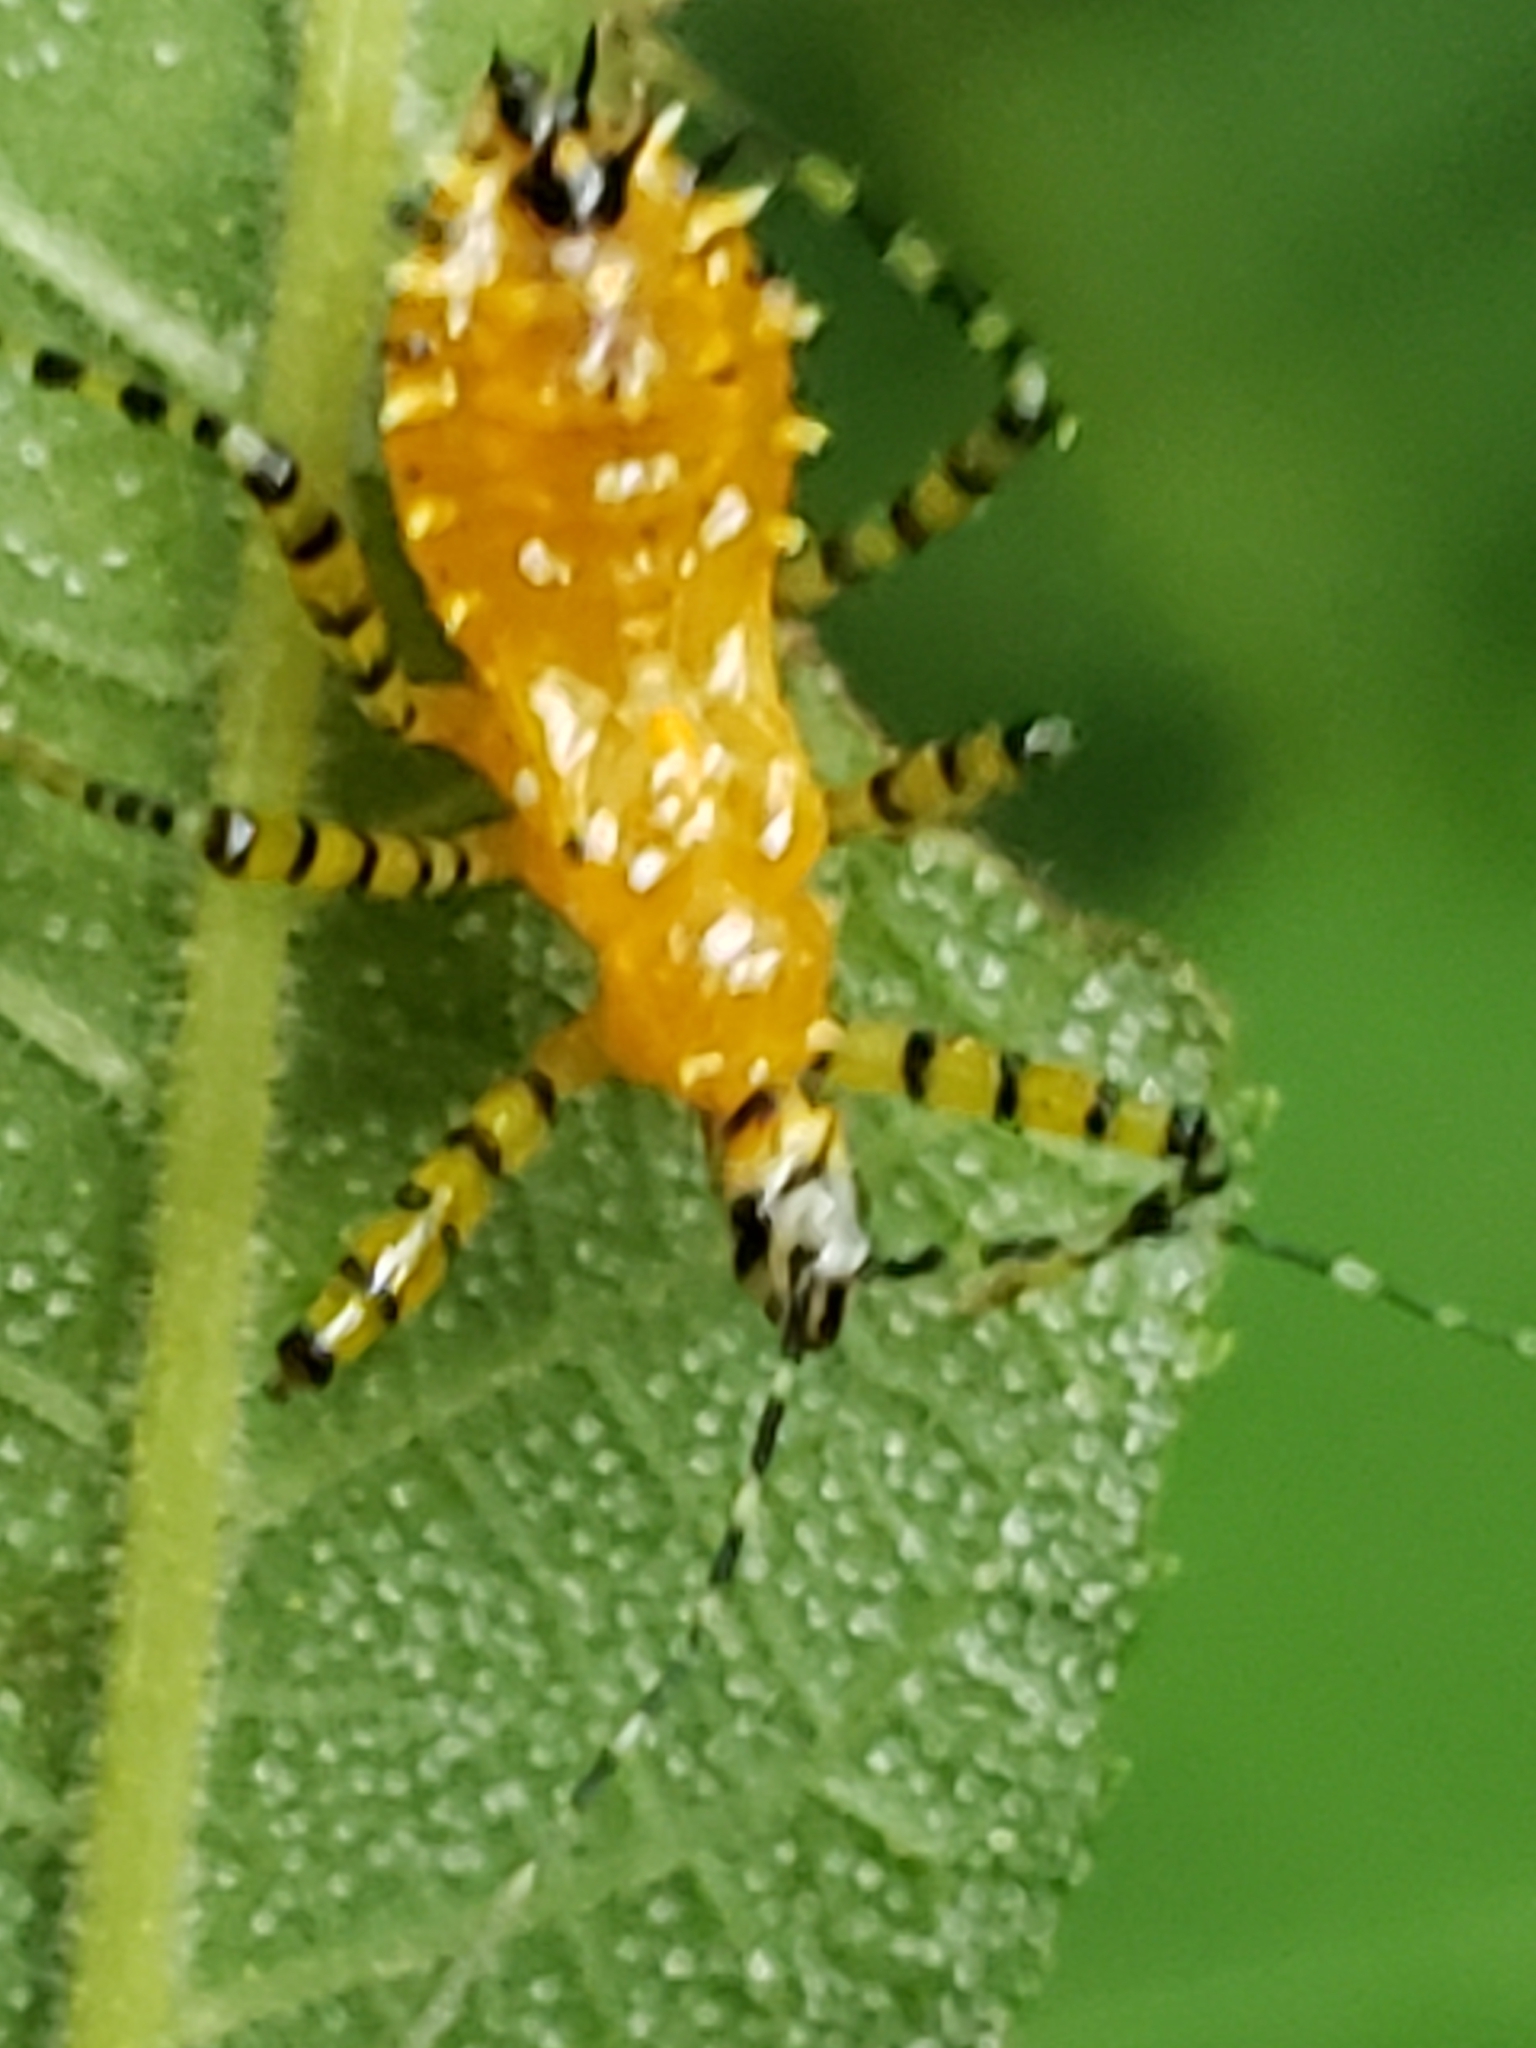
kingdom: Animalia
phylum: Arthropoda
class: Insecta
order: Hemiptera
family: Reduviidae
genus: Pselliopus
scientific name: Pselliopus barberi
